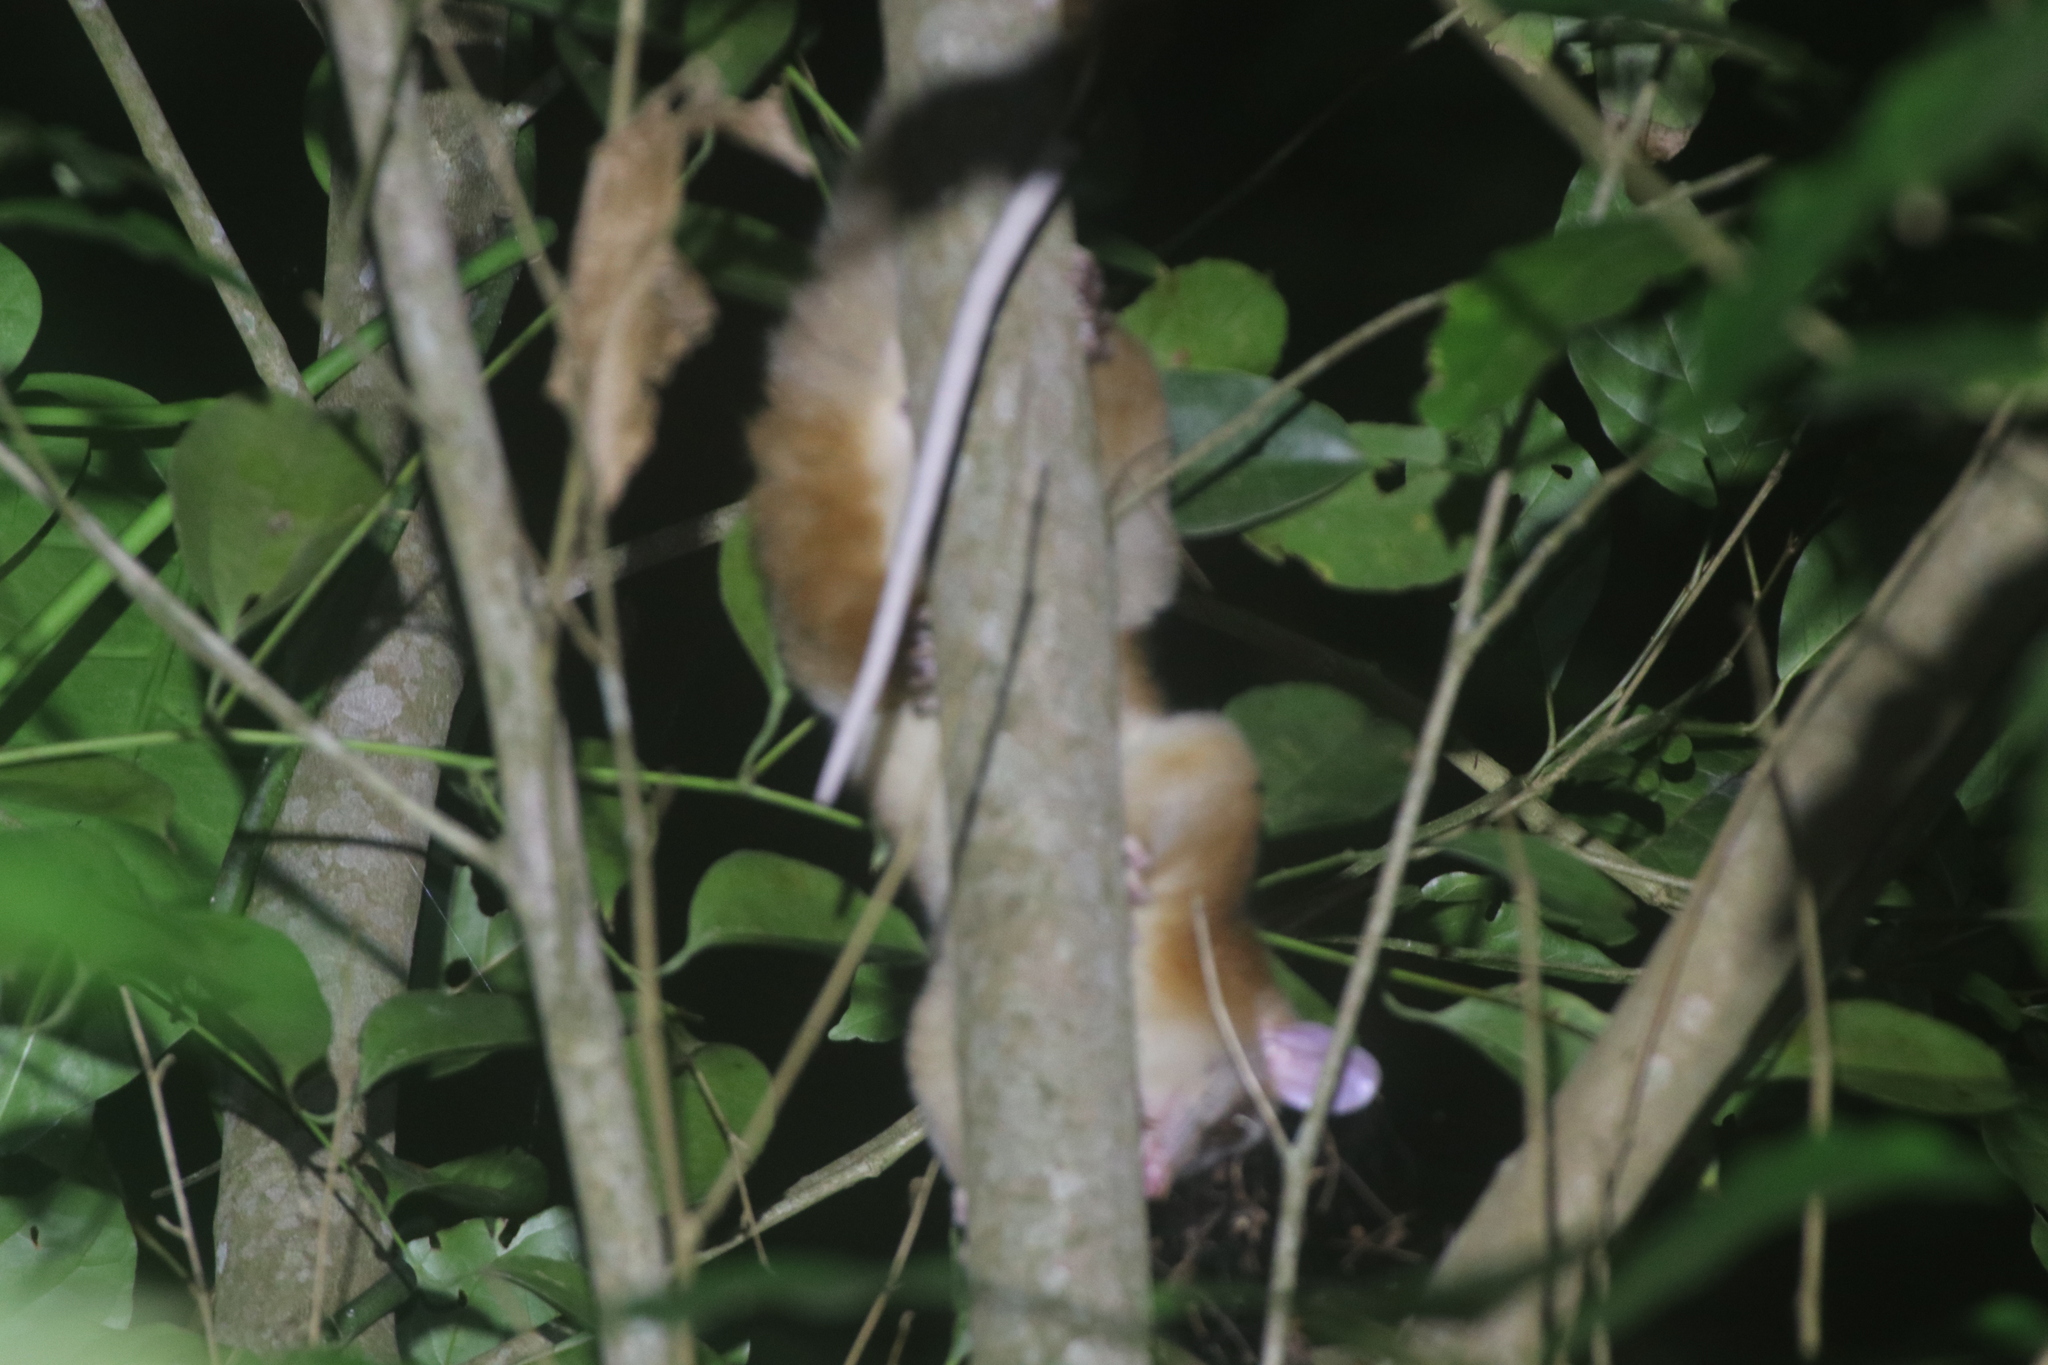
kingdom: Animalia
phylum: Chordata
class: Mammalia
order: Didelphimorphia
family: Didelphidae
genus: Caluromys
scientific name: Caluromys derbianus
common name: Derby's woolly opossum
